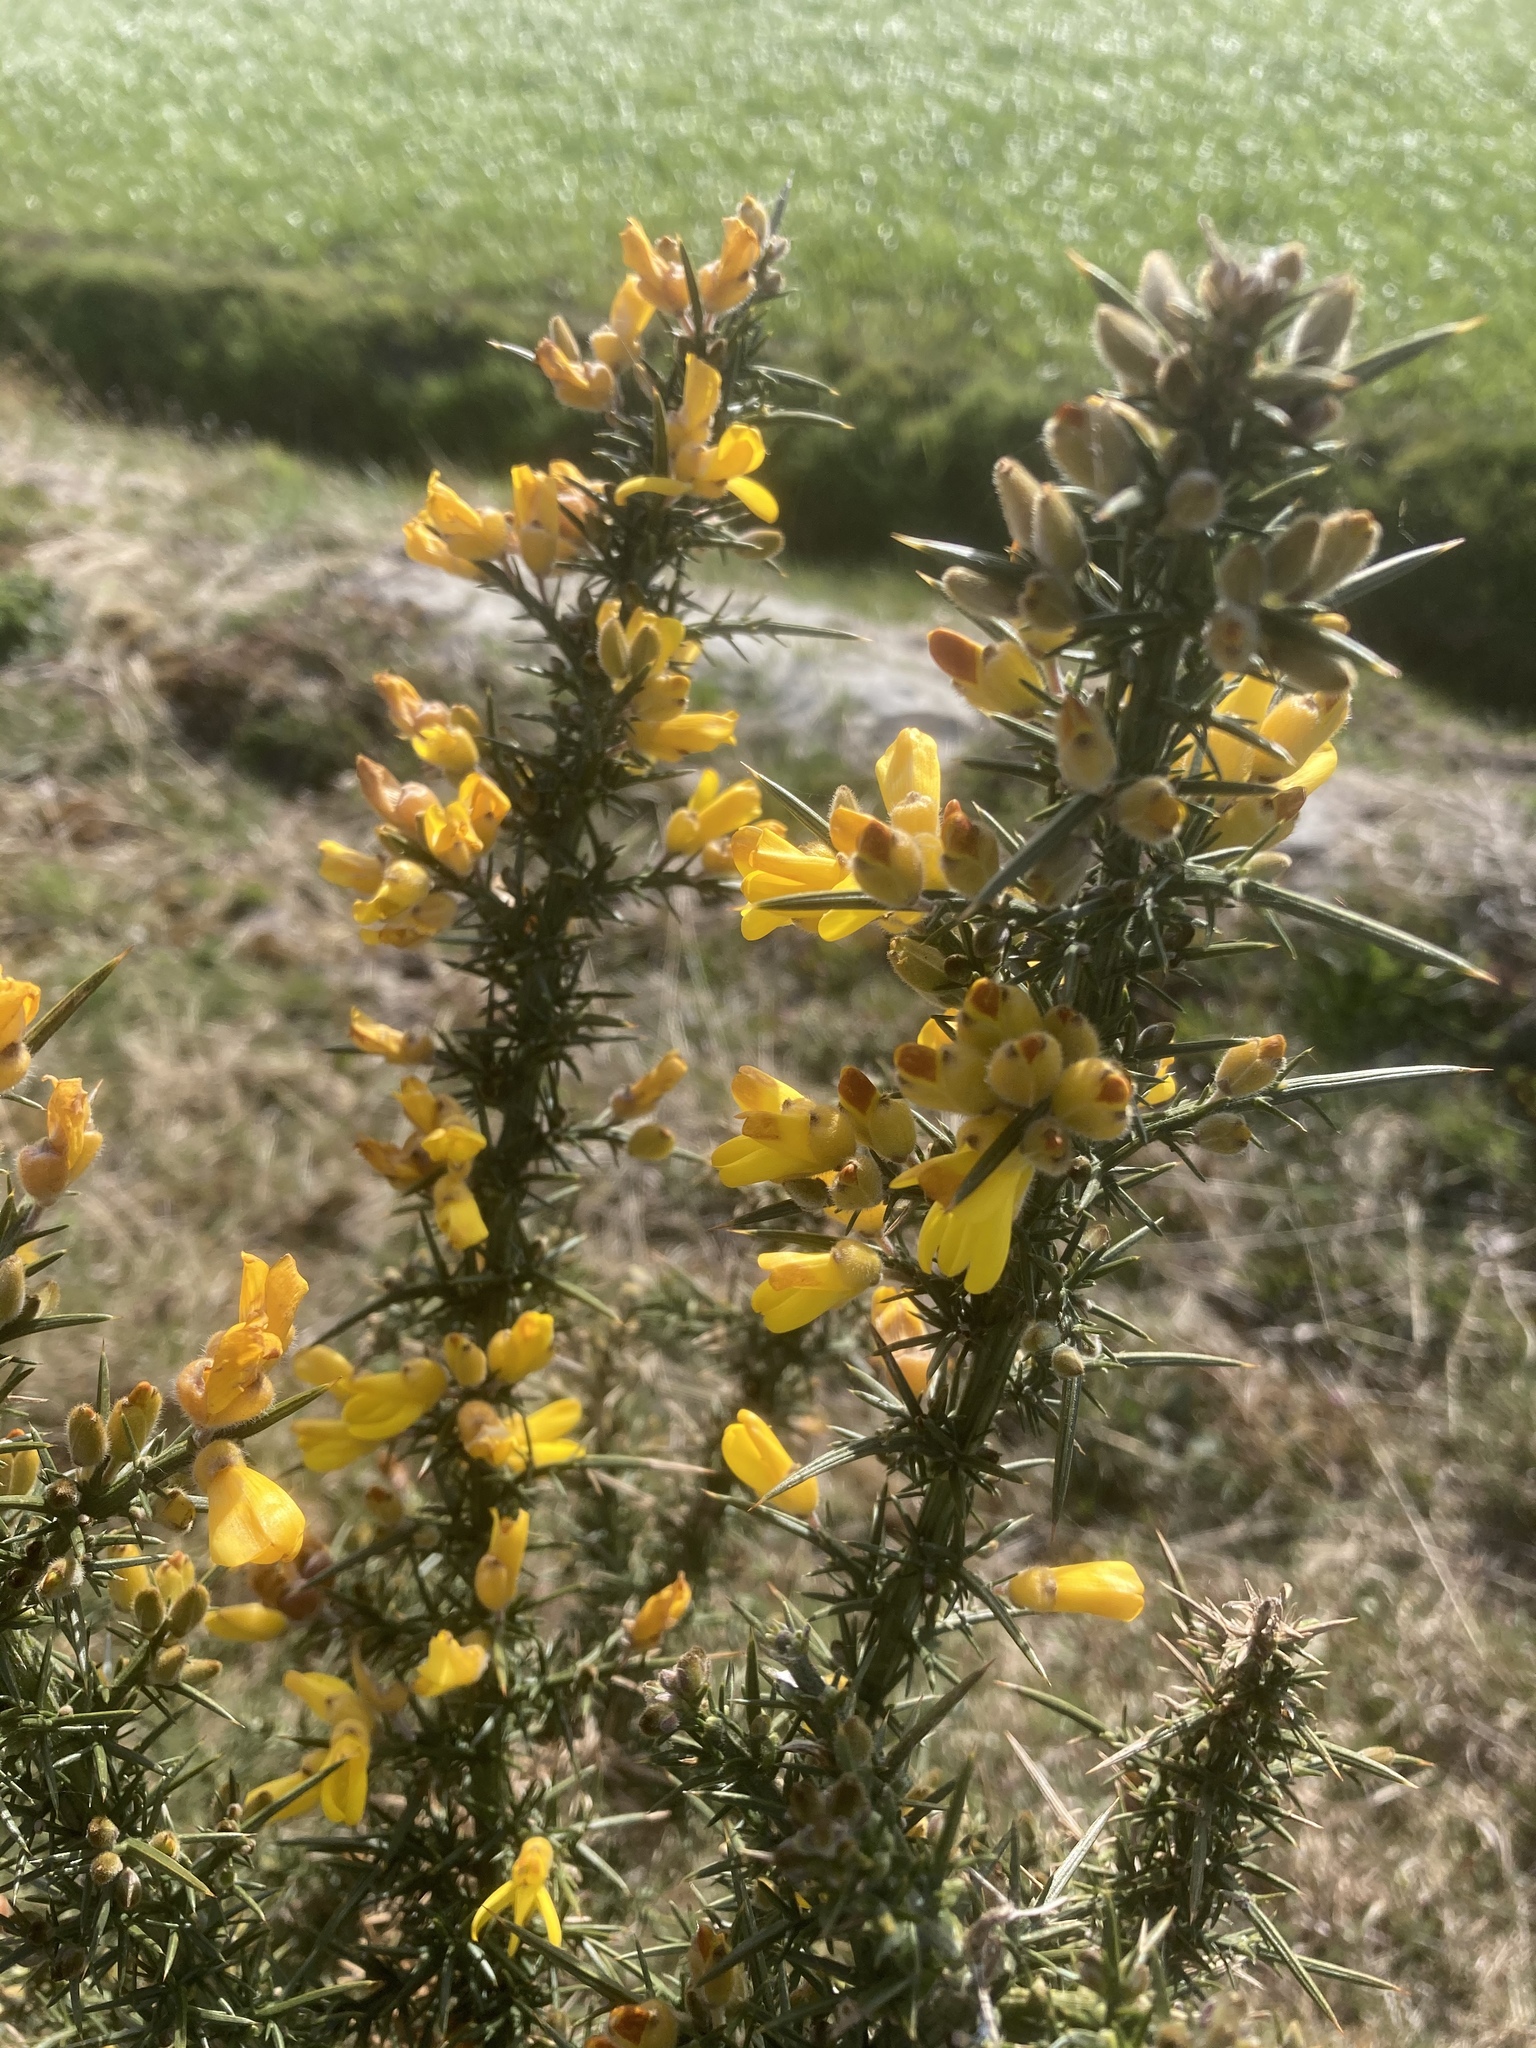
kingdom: Plantae
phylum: Tracheophyta
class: Magnoliopsida
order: Fabales
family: Fabaceae
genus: Ulex
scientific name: Ulex europaeus
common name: Common gorse
